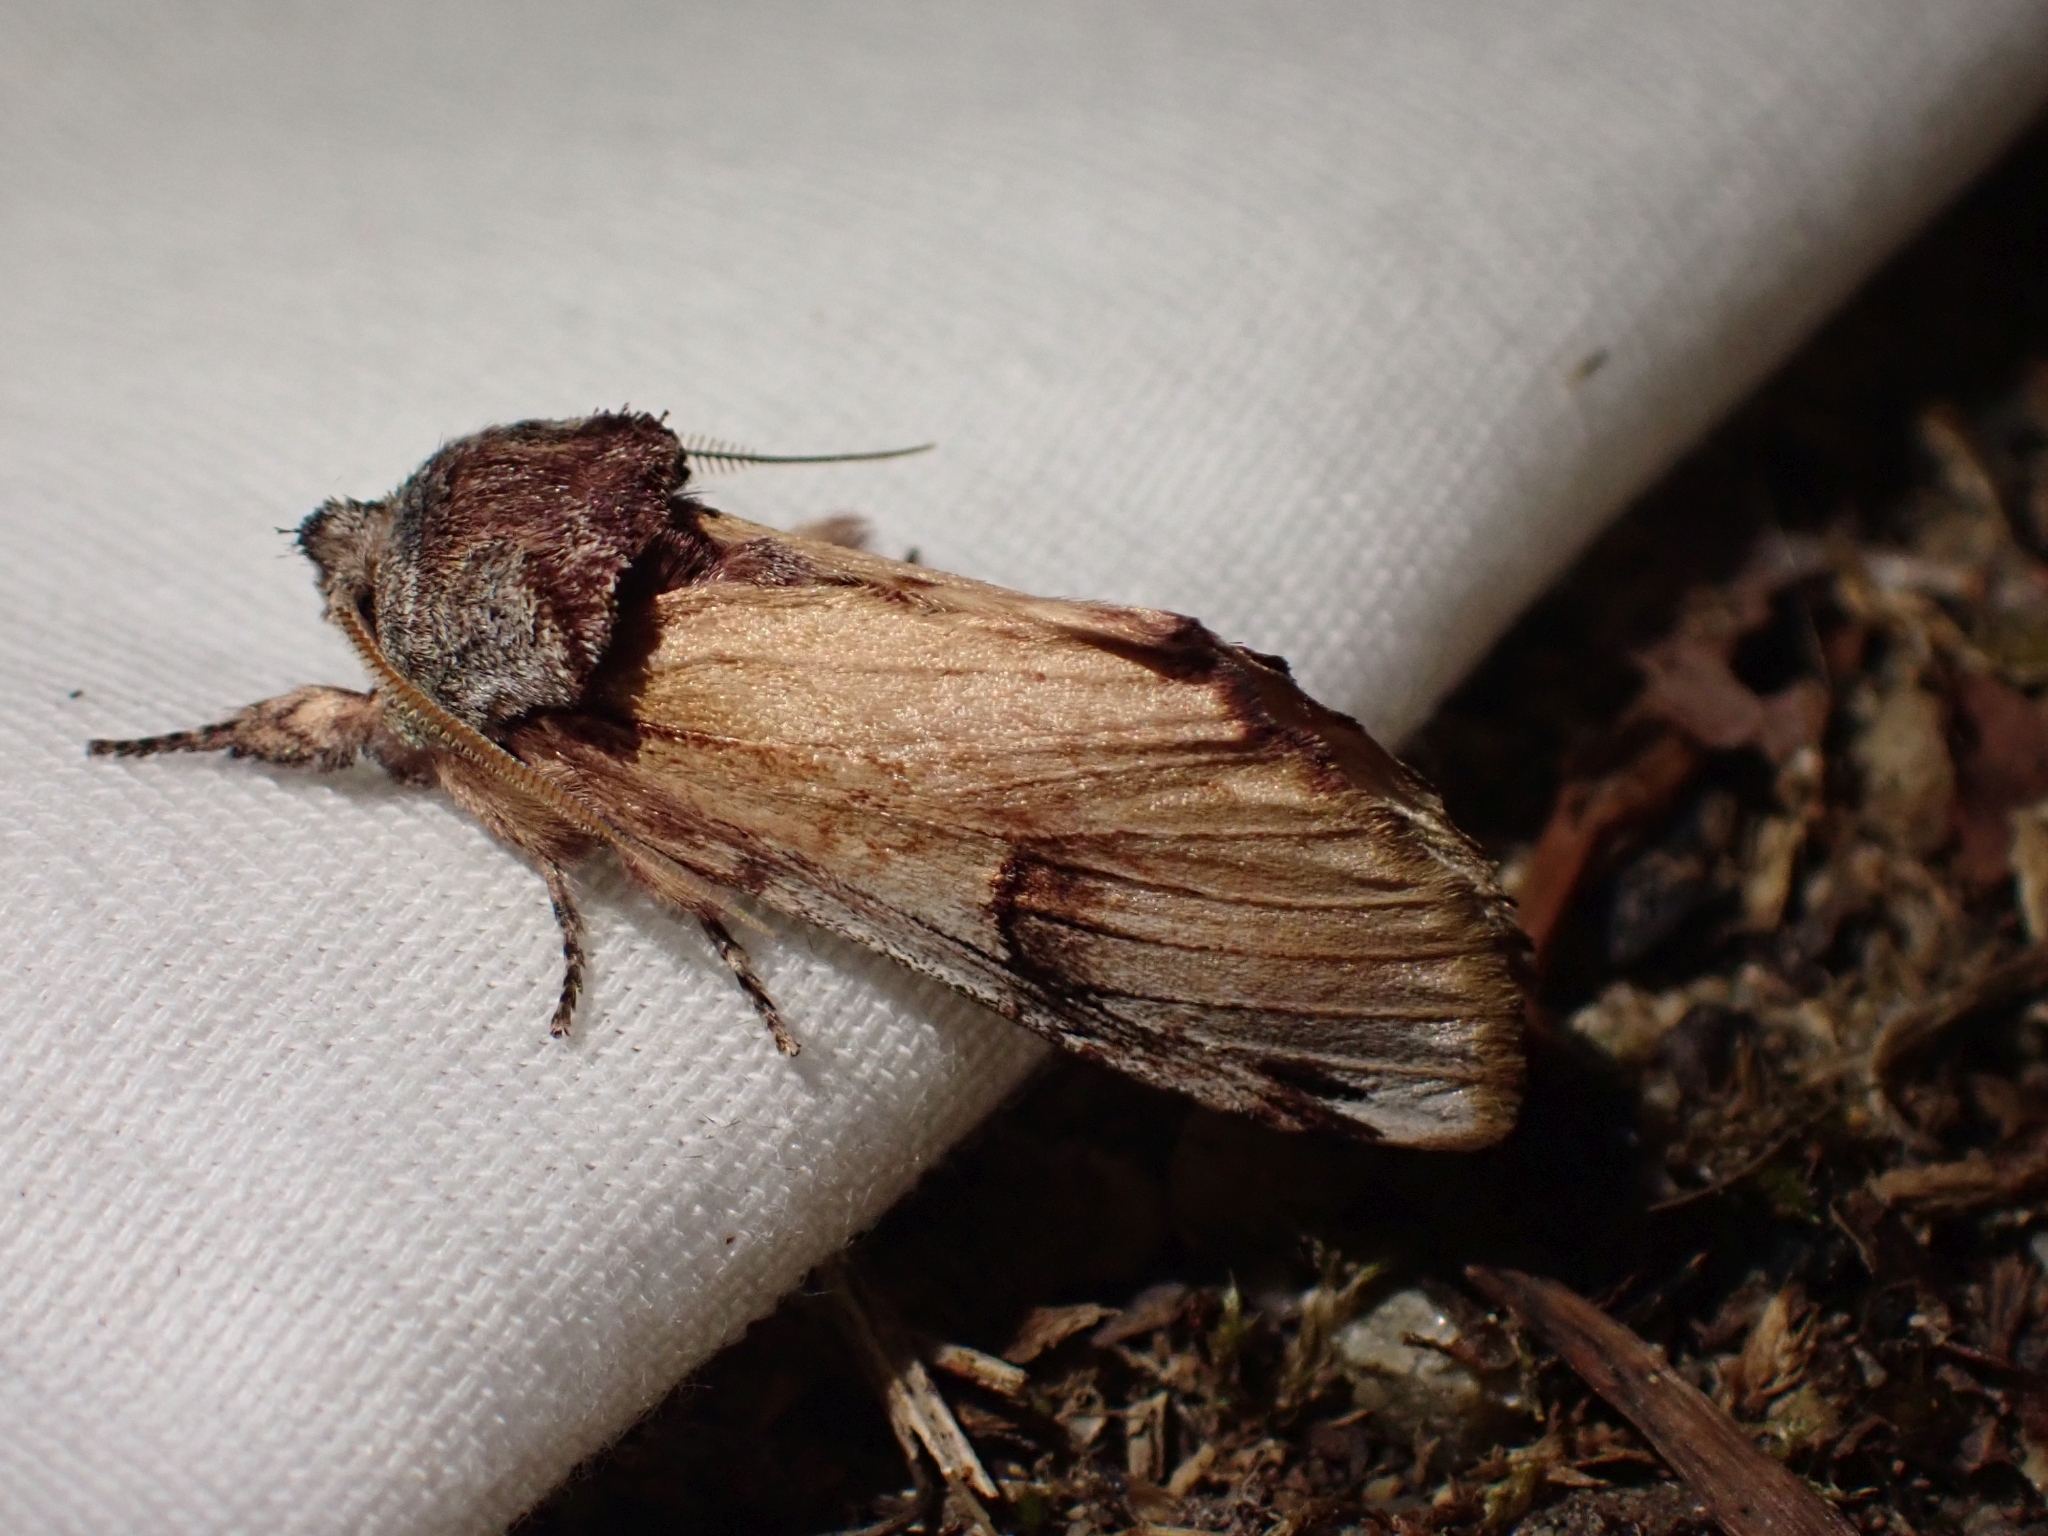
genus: Ianassa
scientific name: Ianassa
